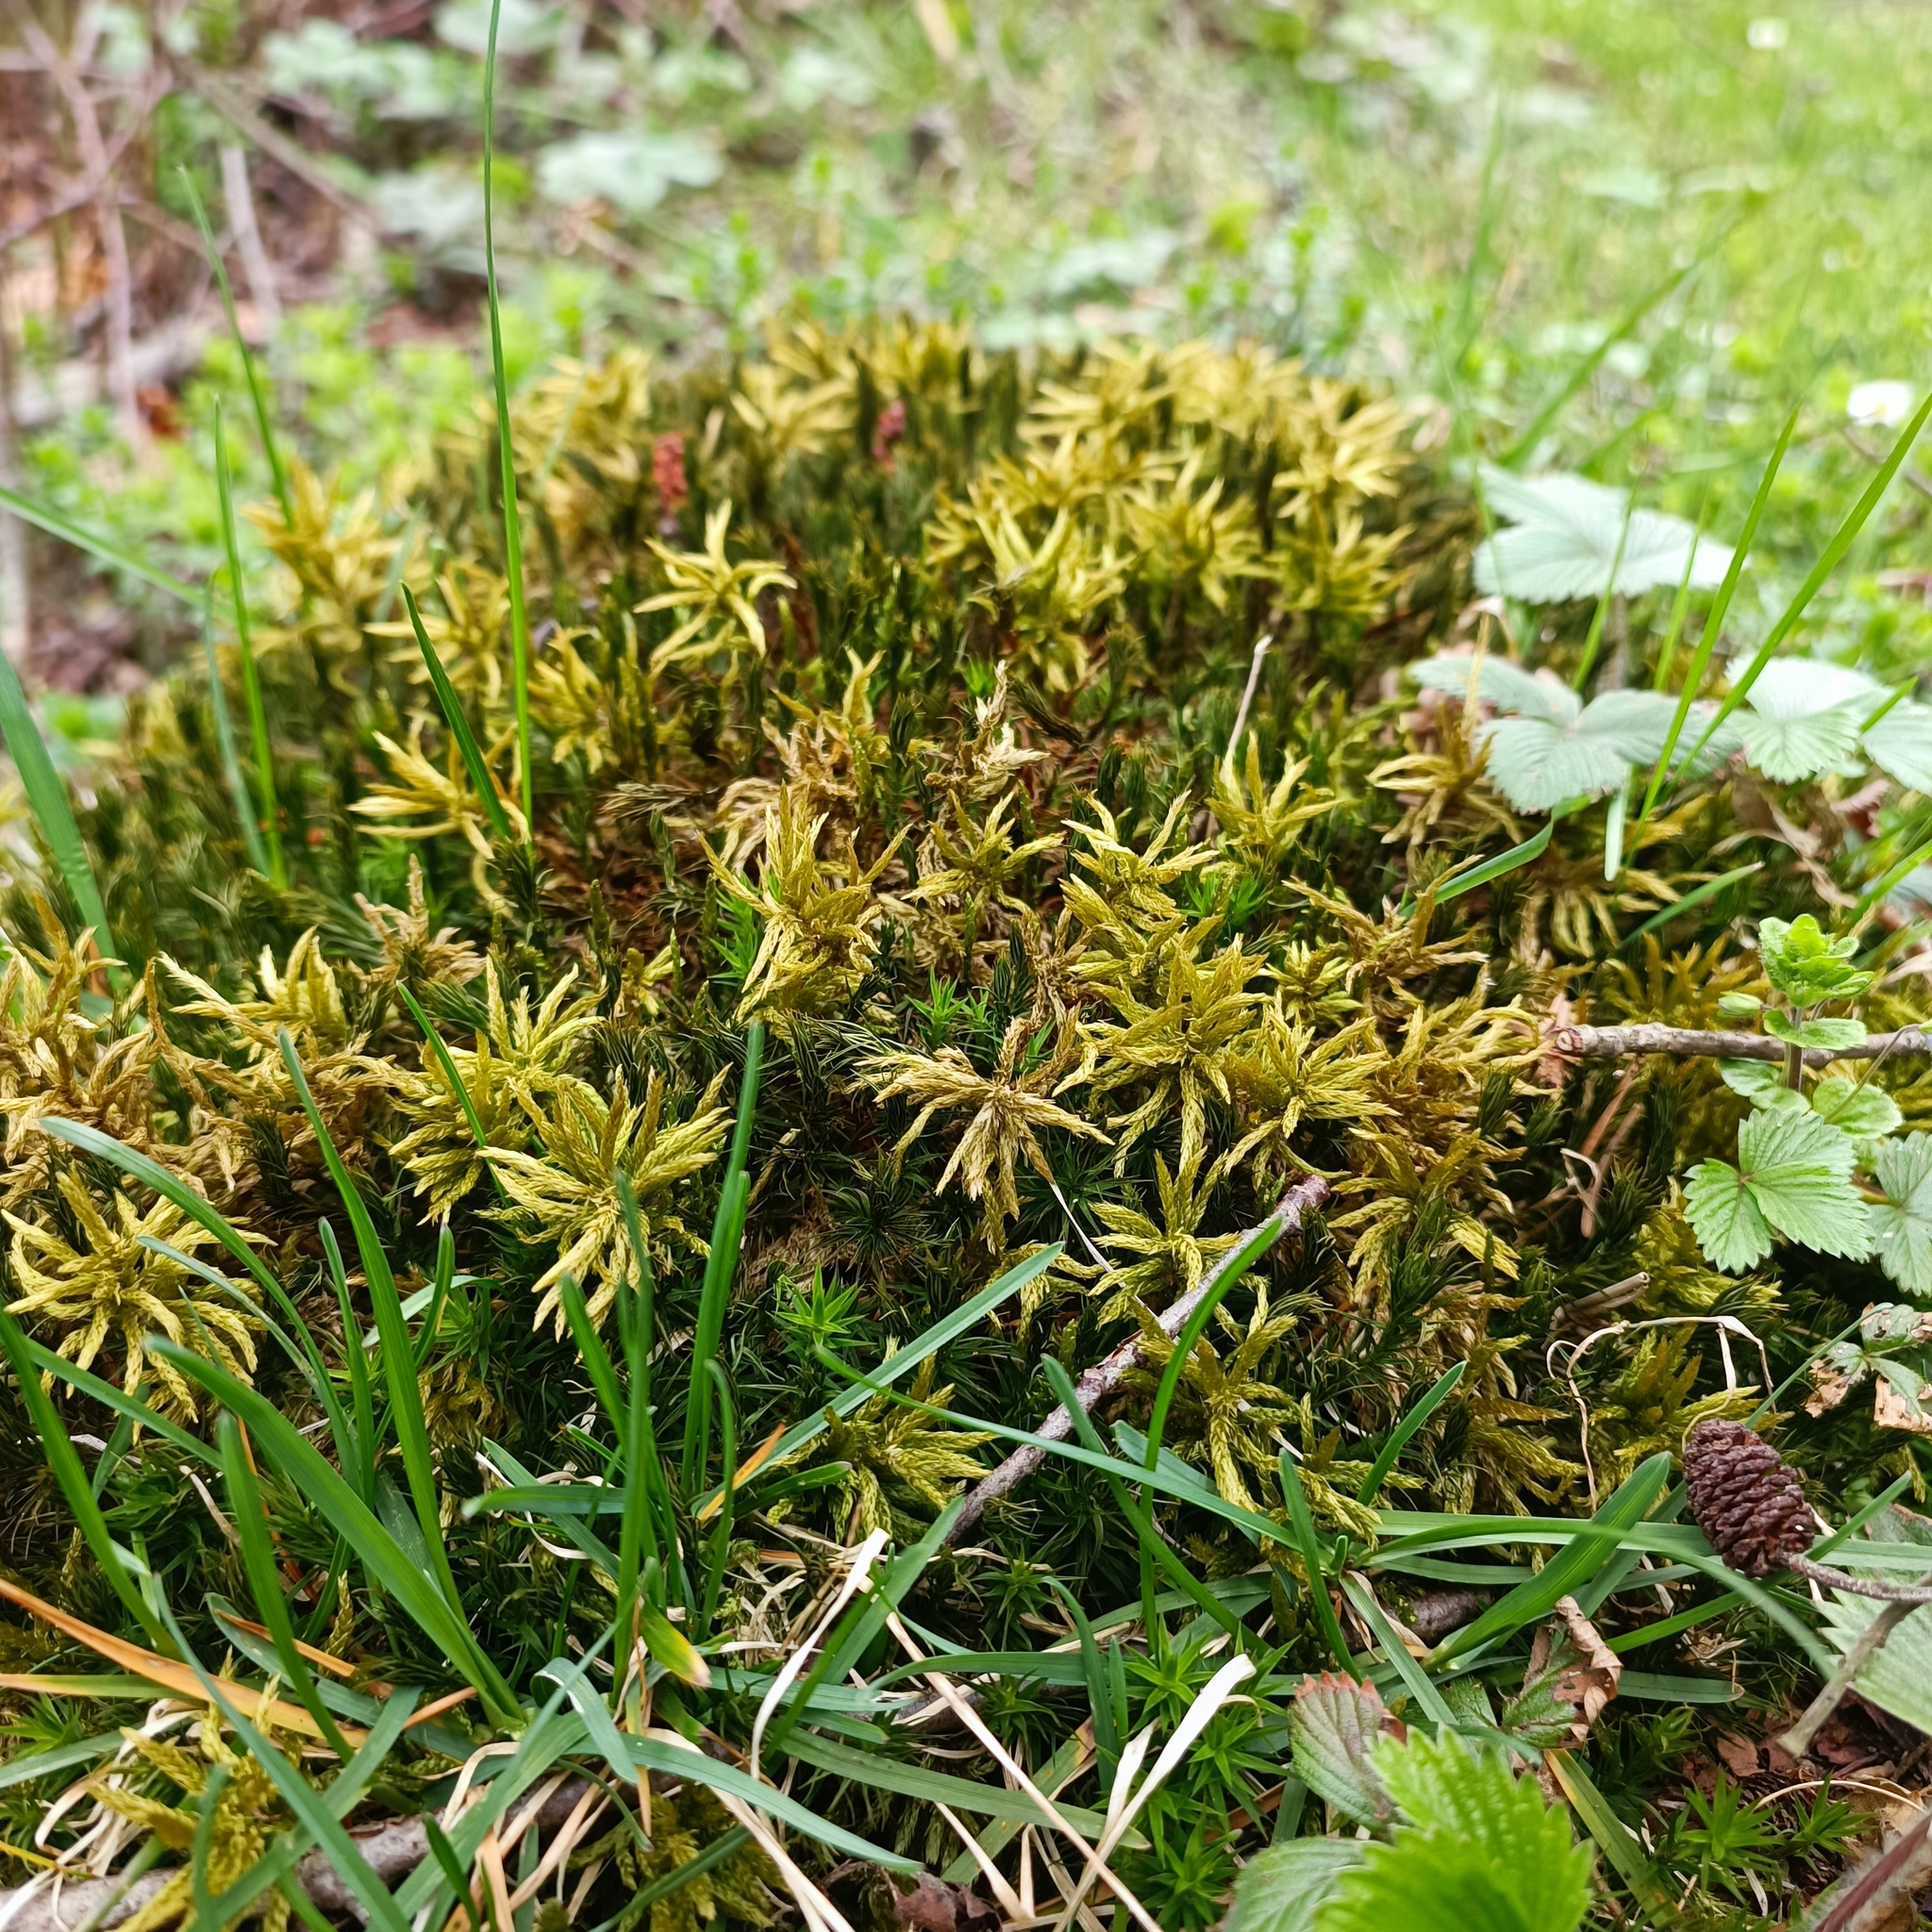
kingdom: Plantae
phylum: Bryophyta
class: Bryopsida
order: Hypnales
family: Climaciaceae
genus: Climacium
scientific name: Climacium dendroides
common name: Northern tree moss
